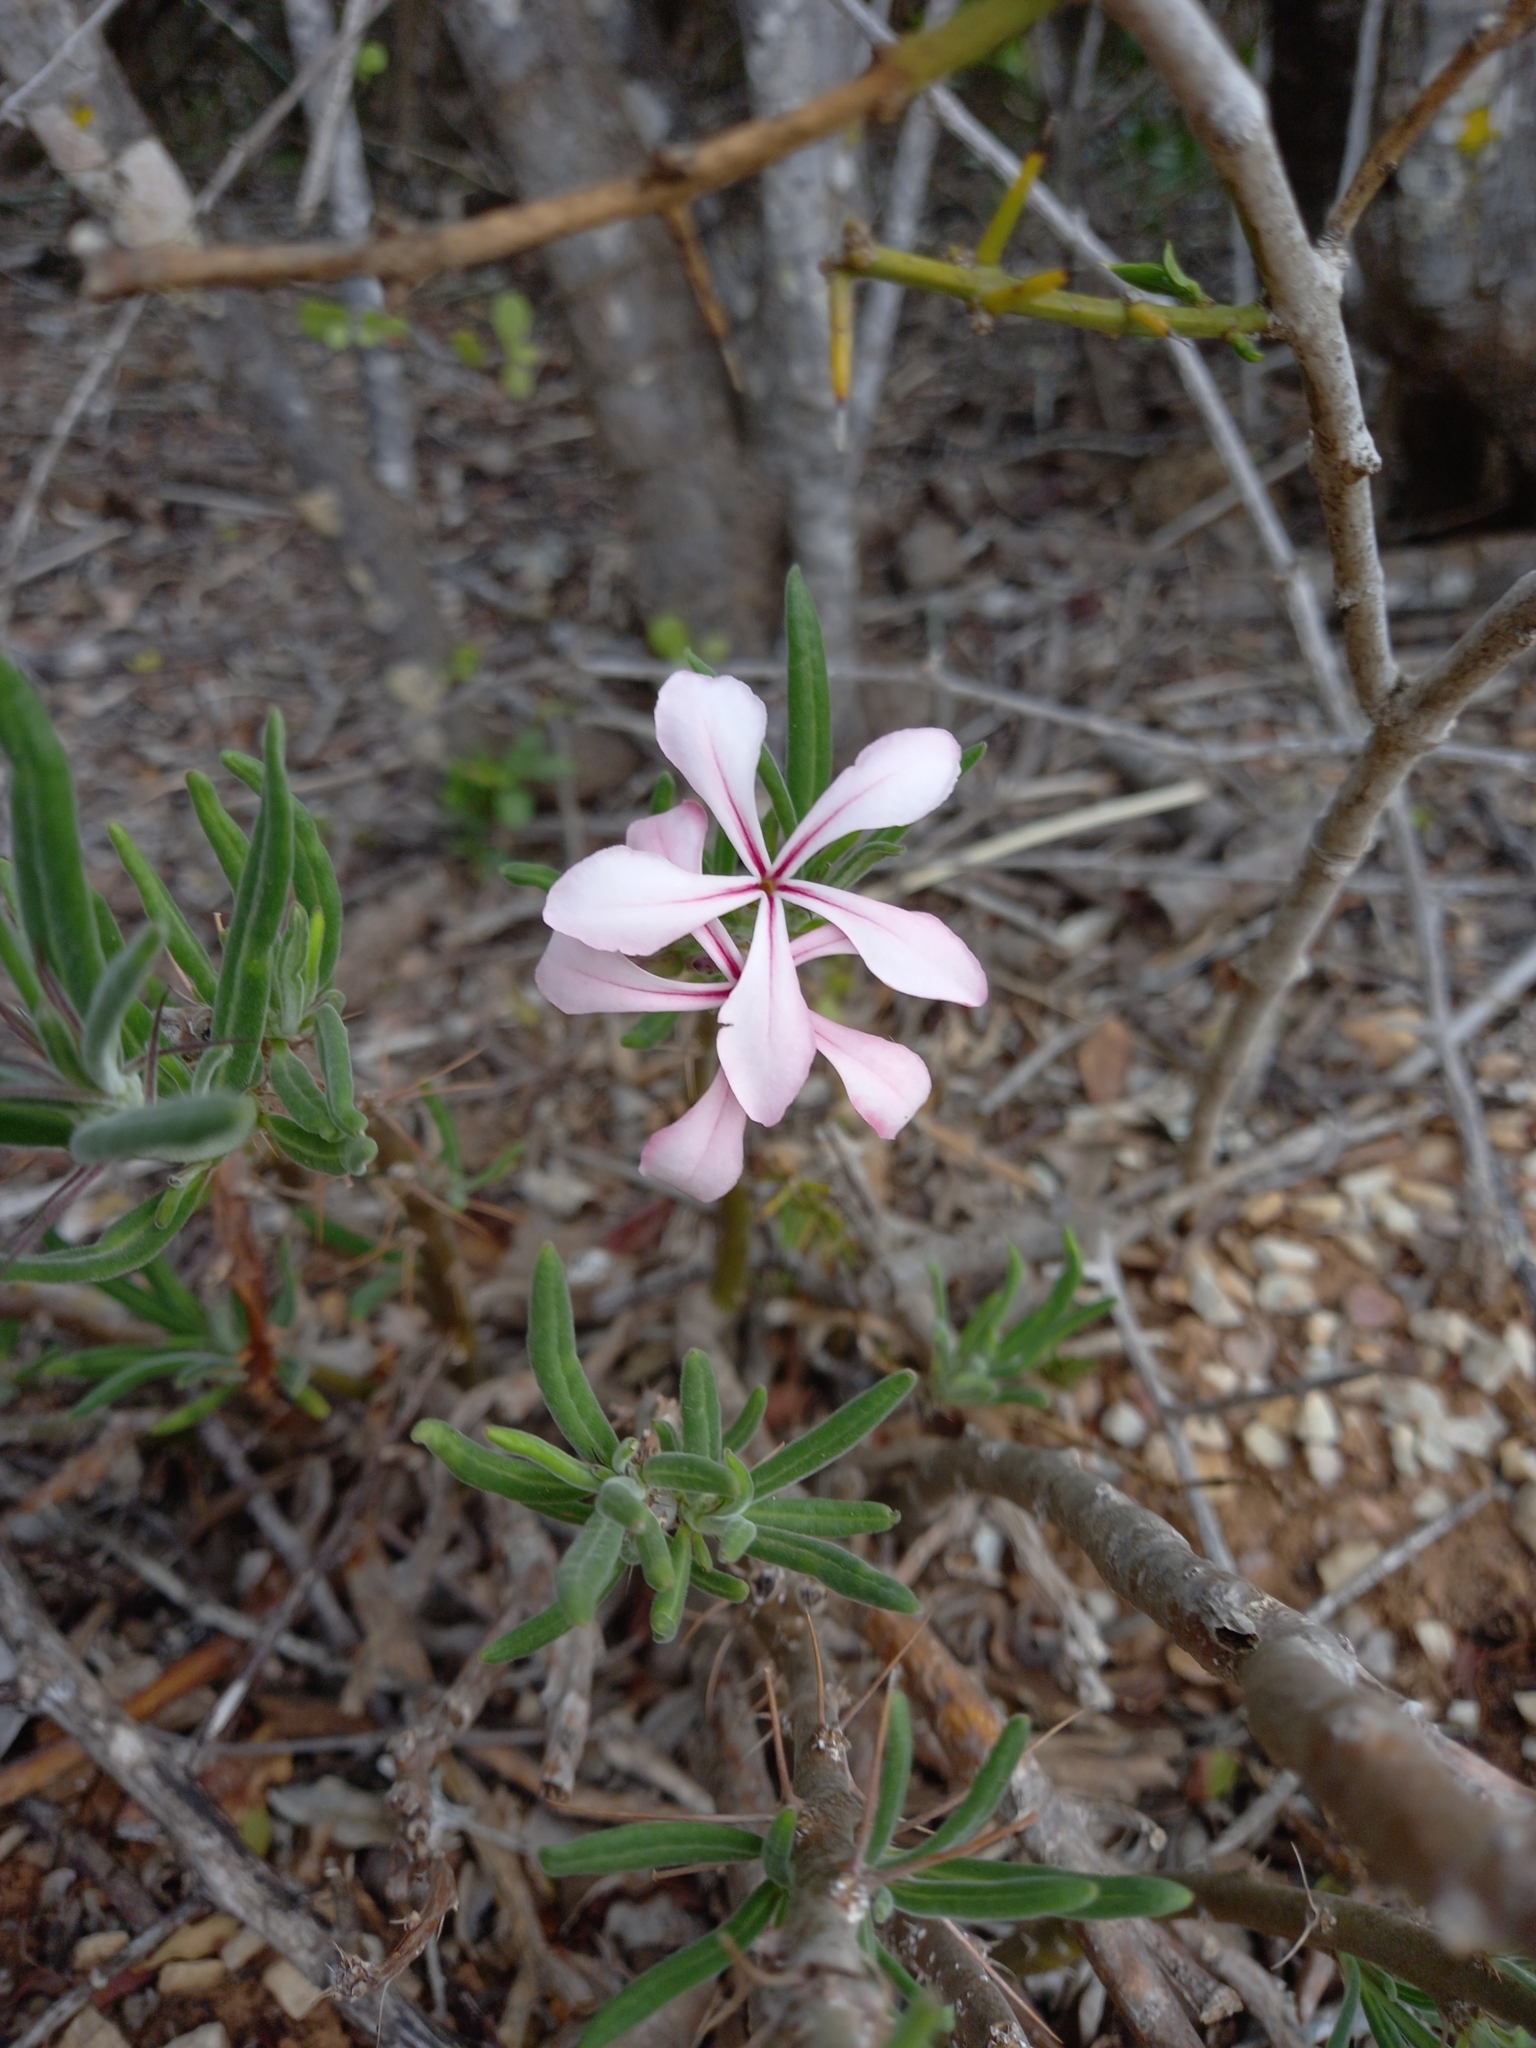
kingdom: Plantae
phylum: Tracheophyta
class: Magnoliopsida
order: Gentianales
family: Apocynaceae
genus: Pachypodium
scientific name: Pachypodium succulentum
